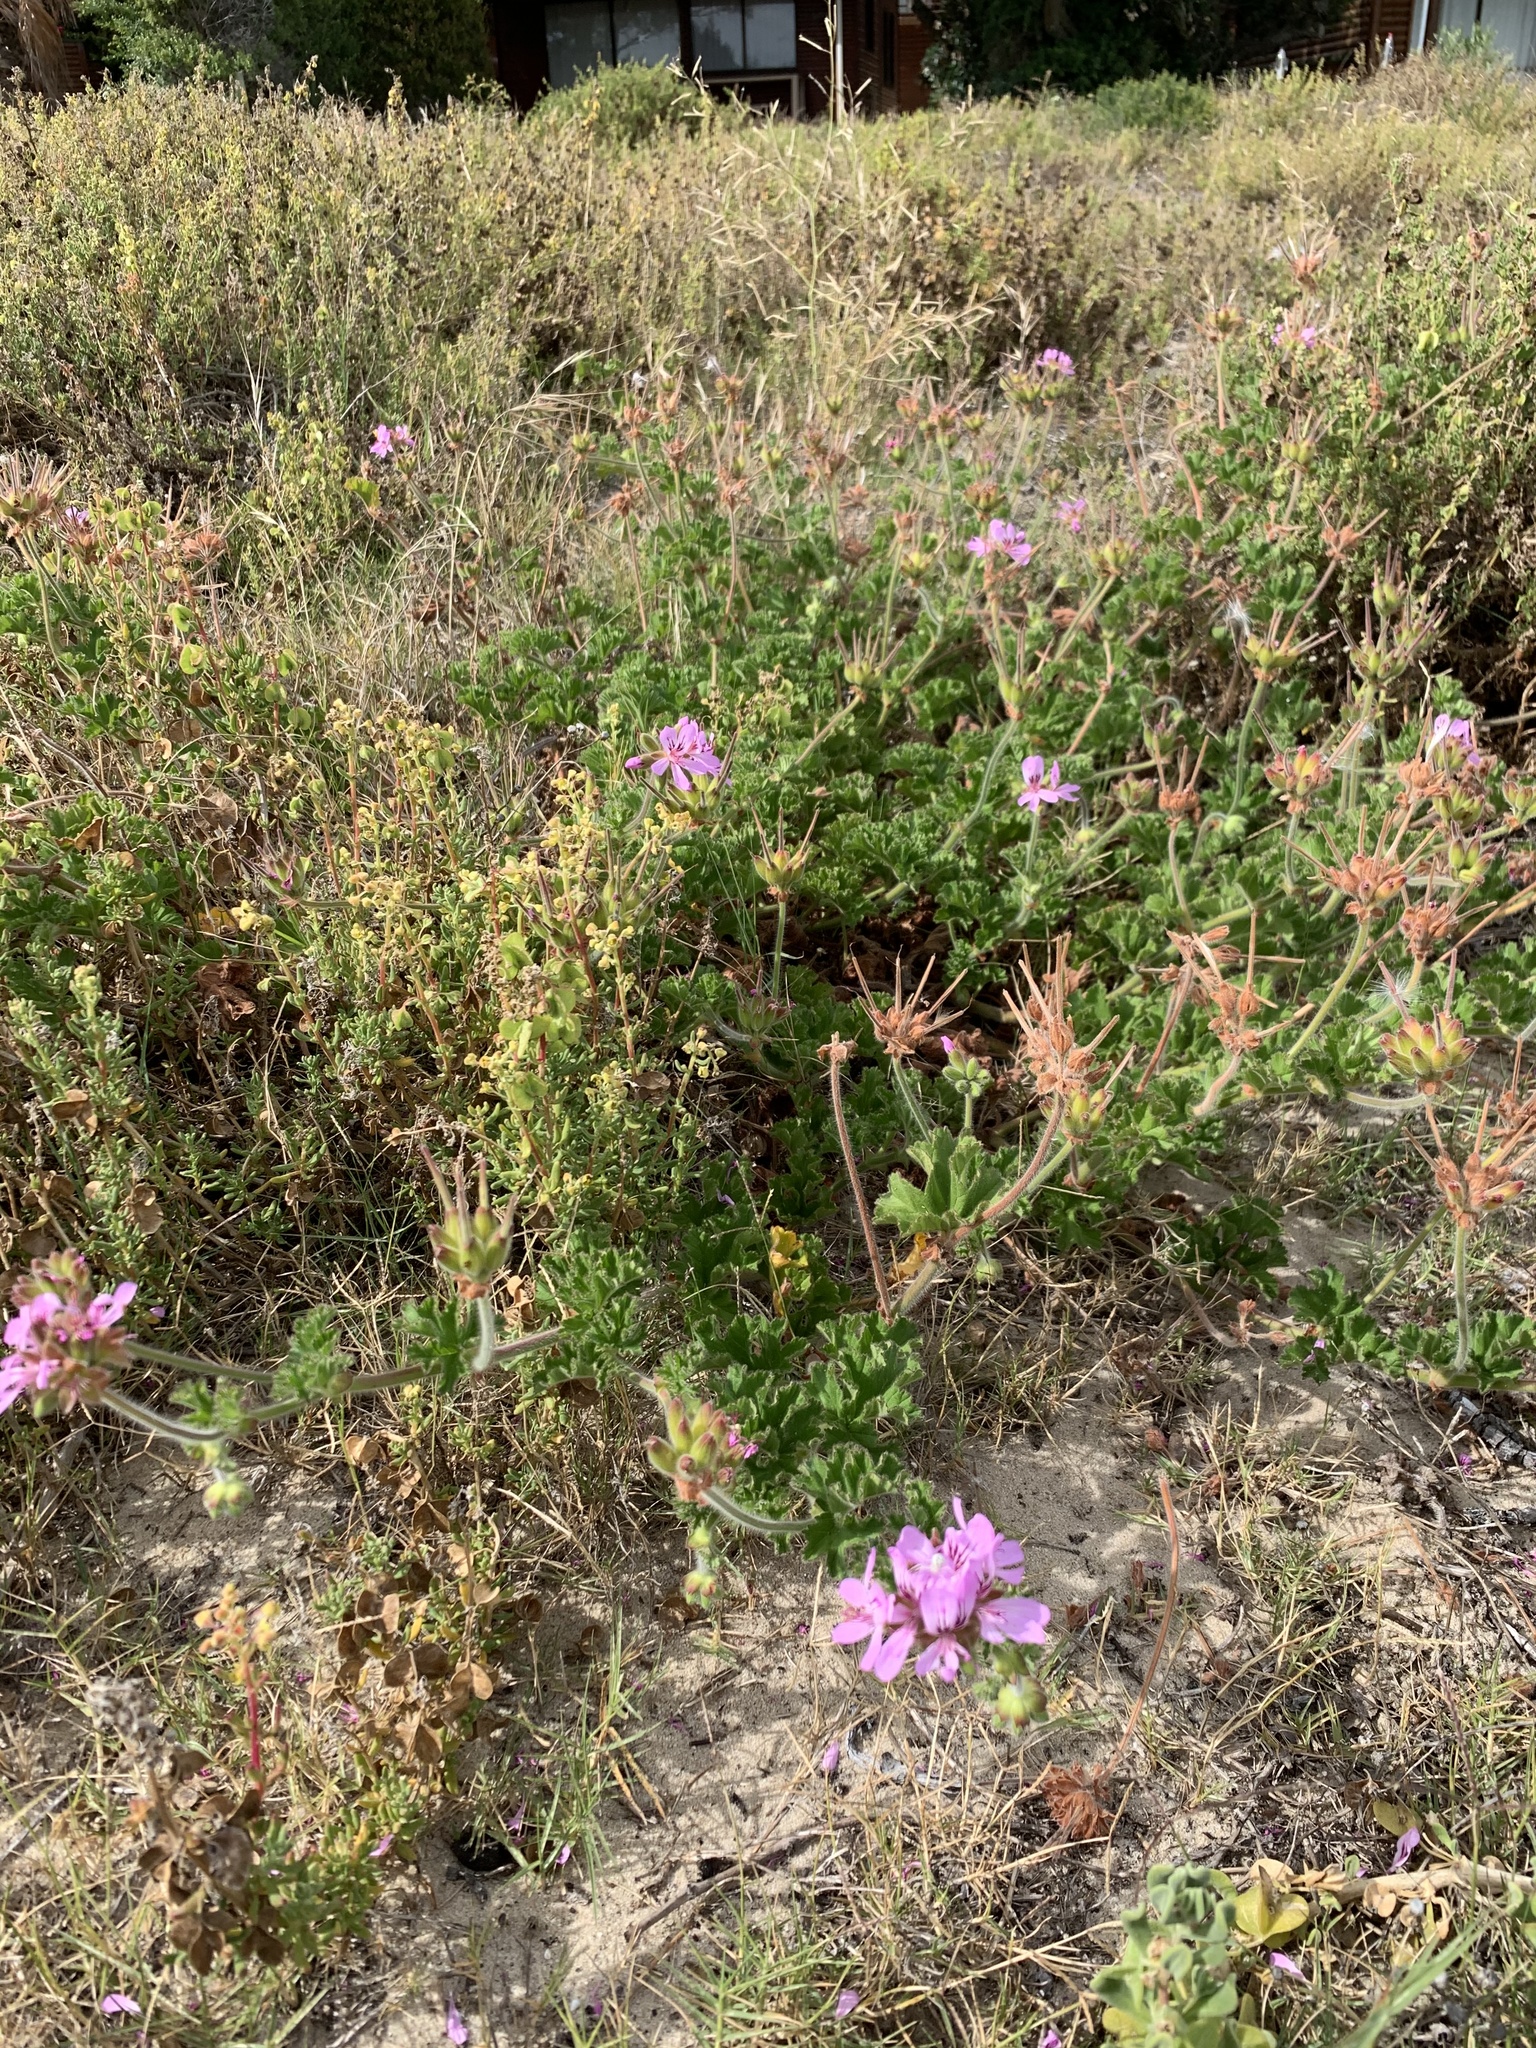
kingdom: Plantae
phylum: Tracheophyta
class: Magnoliopsida
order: Geraniales
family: Geraniaceae
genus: Pelargonium
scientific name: Pelargonium capitatum
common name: Rose scented geranium
